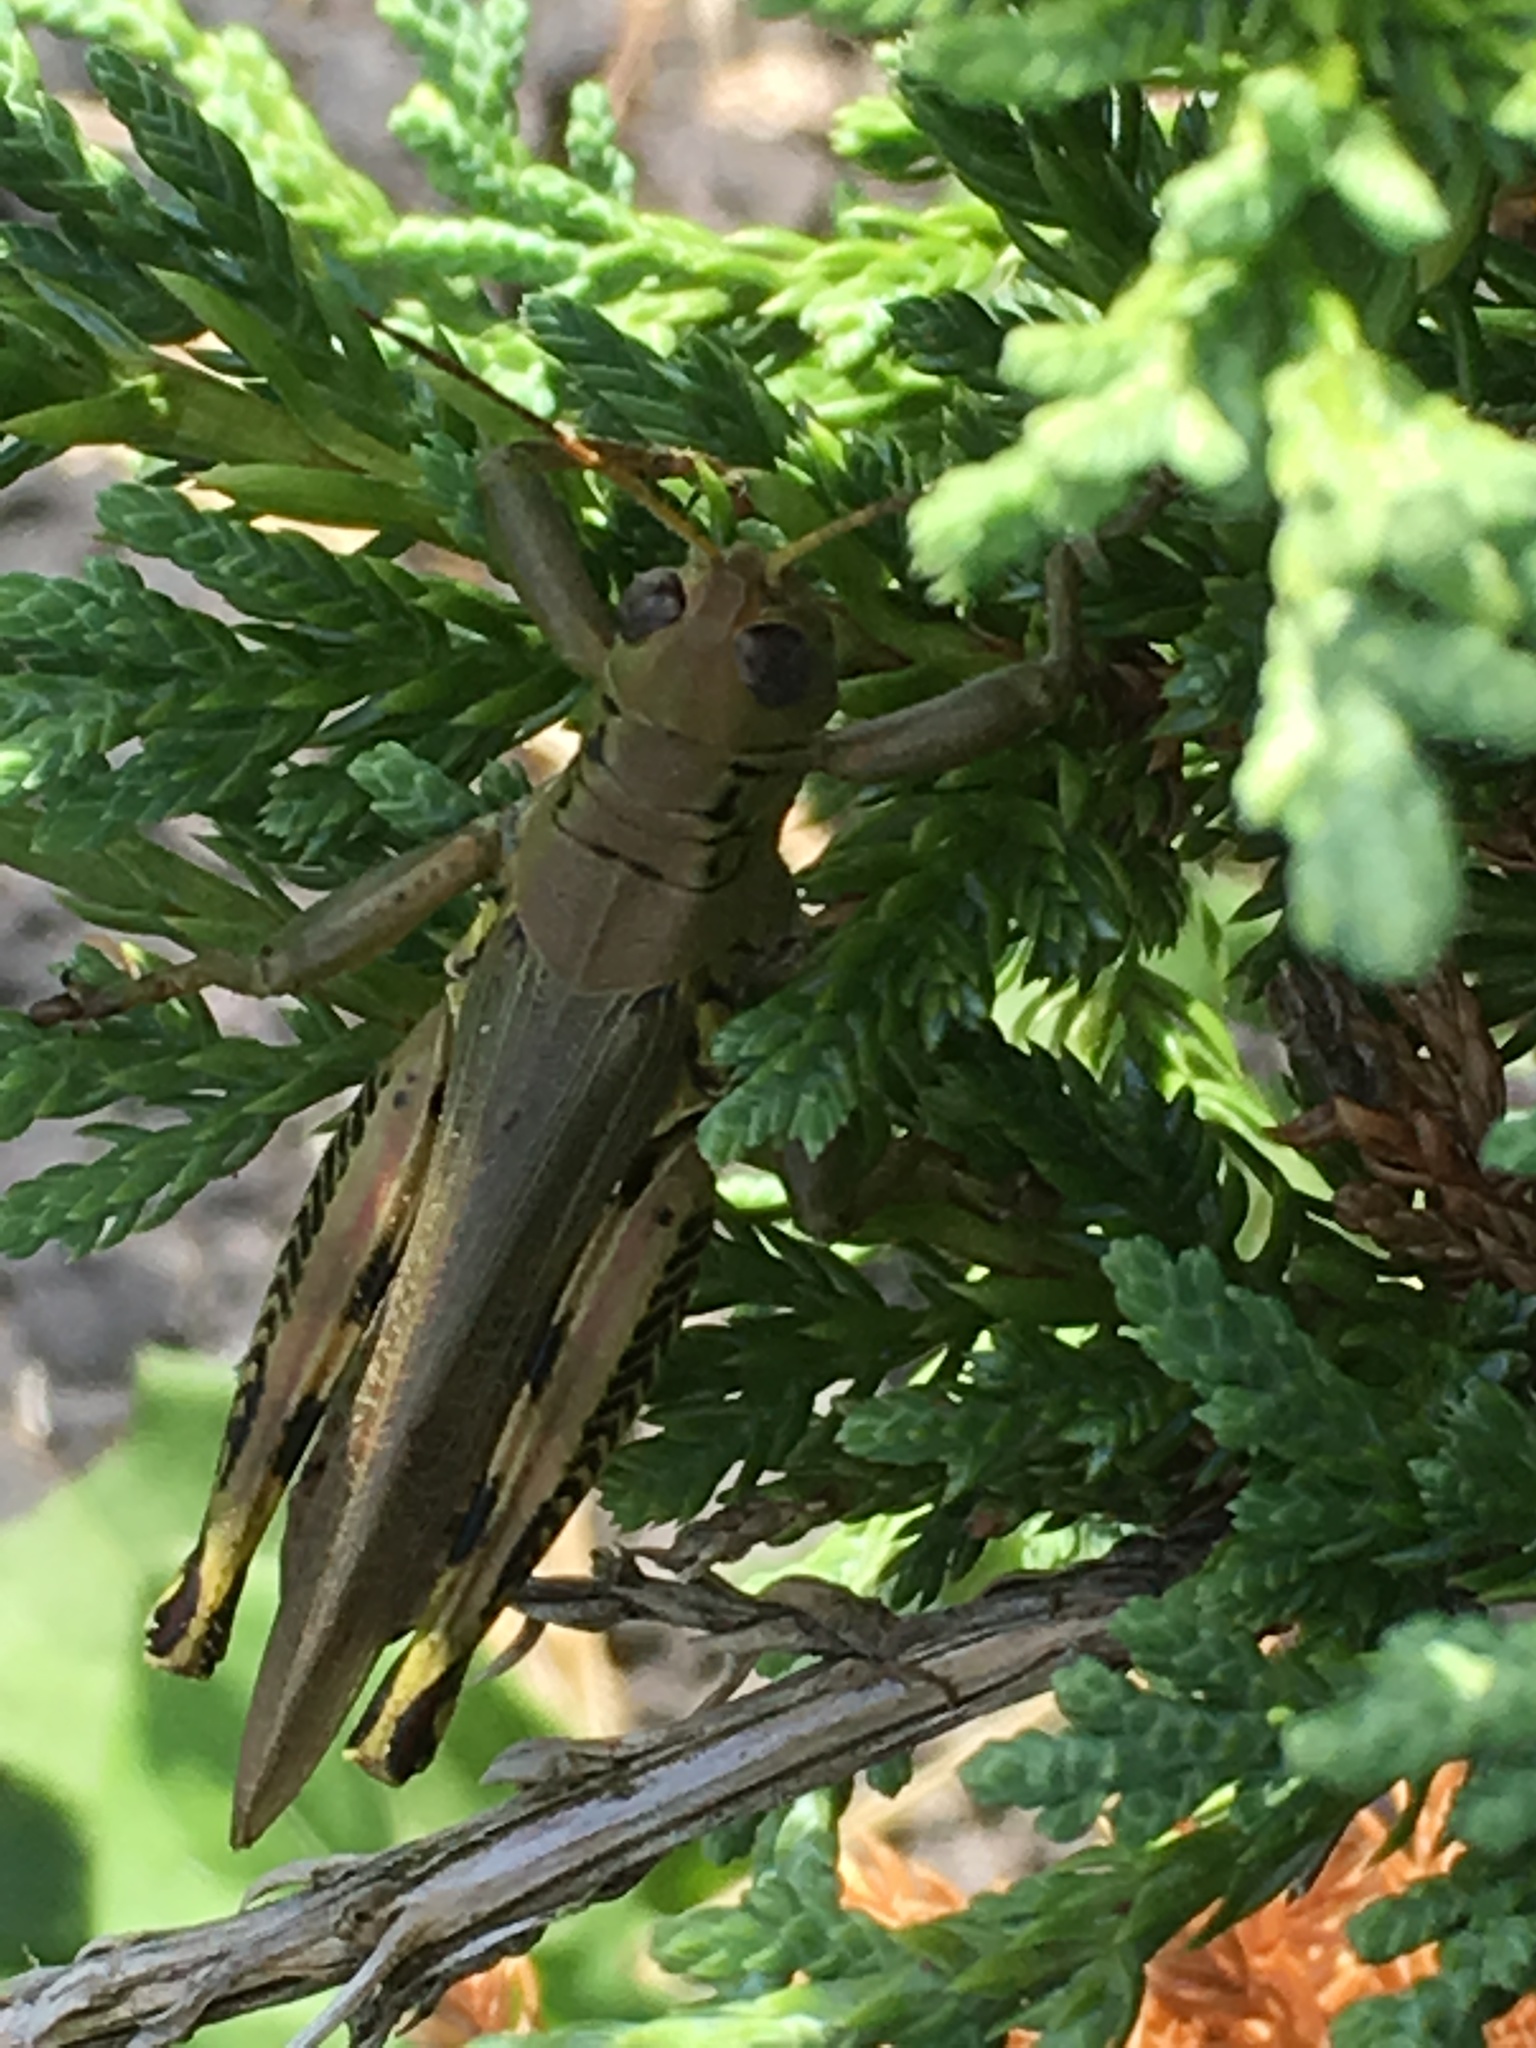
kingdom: Animalia
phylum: Arthropoda
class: Insecta
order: Orthoptera
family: Acrididae
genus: Melanoplus
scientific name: Melanoplus differentialis
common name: Differential grasshopper
